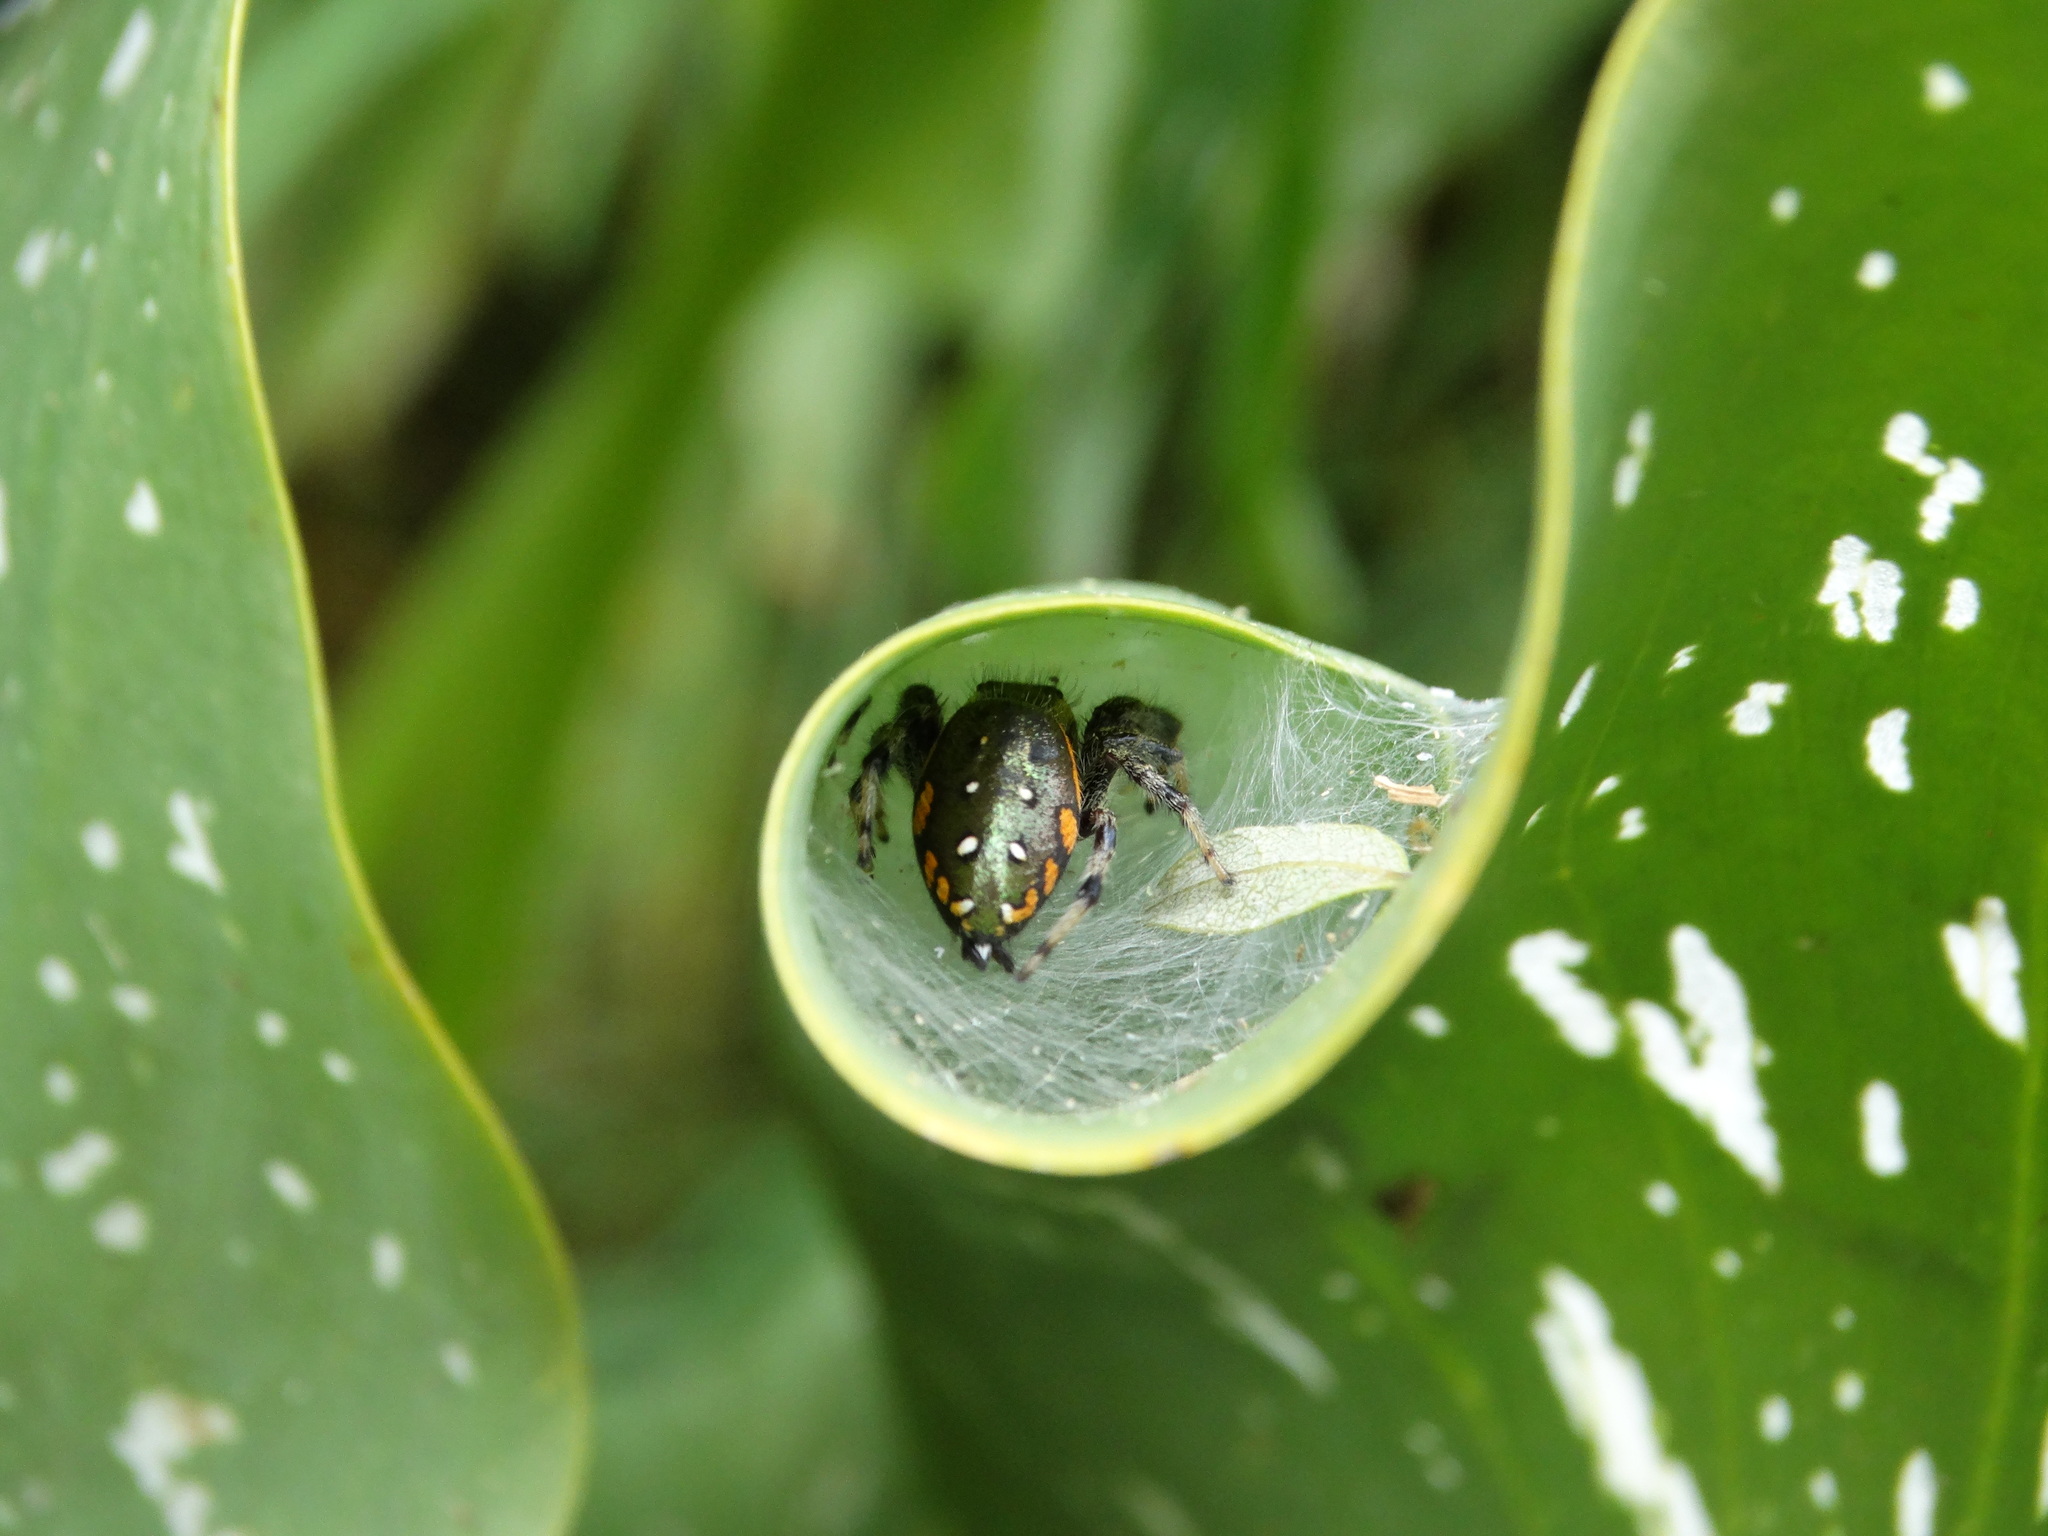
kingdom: Animalia
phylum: Arthropoda
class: Arachnida
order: Araneae
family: Salticidae
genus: Paraphidippus
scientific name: Paraphidippus aurantius
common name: Jumping spiders
